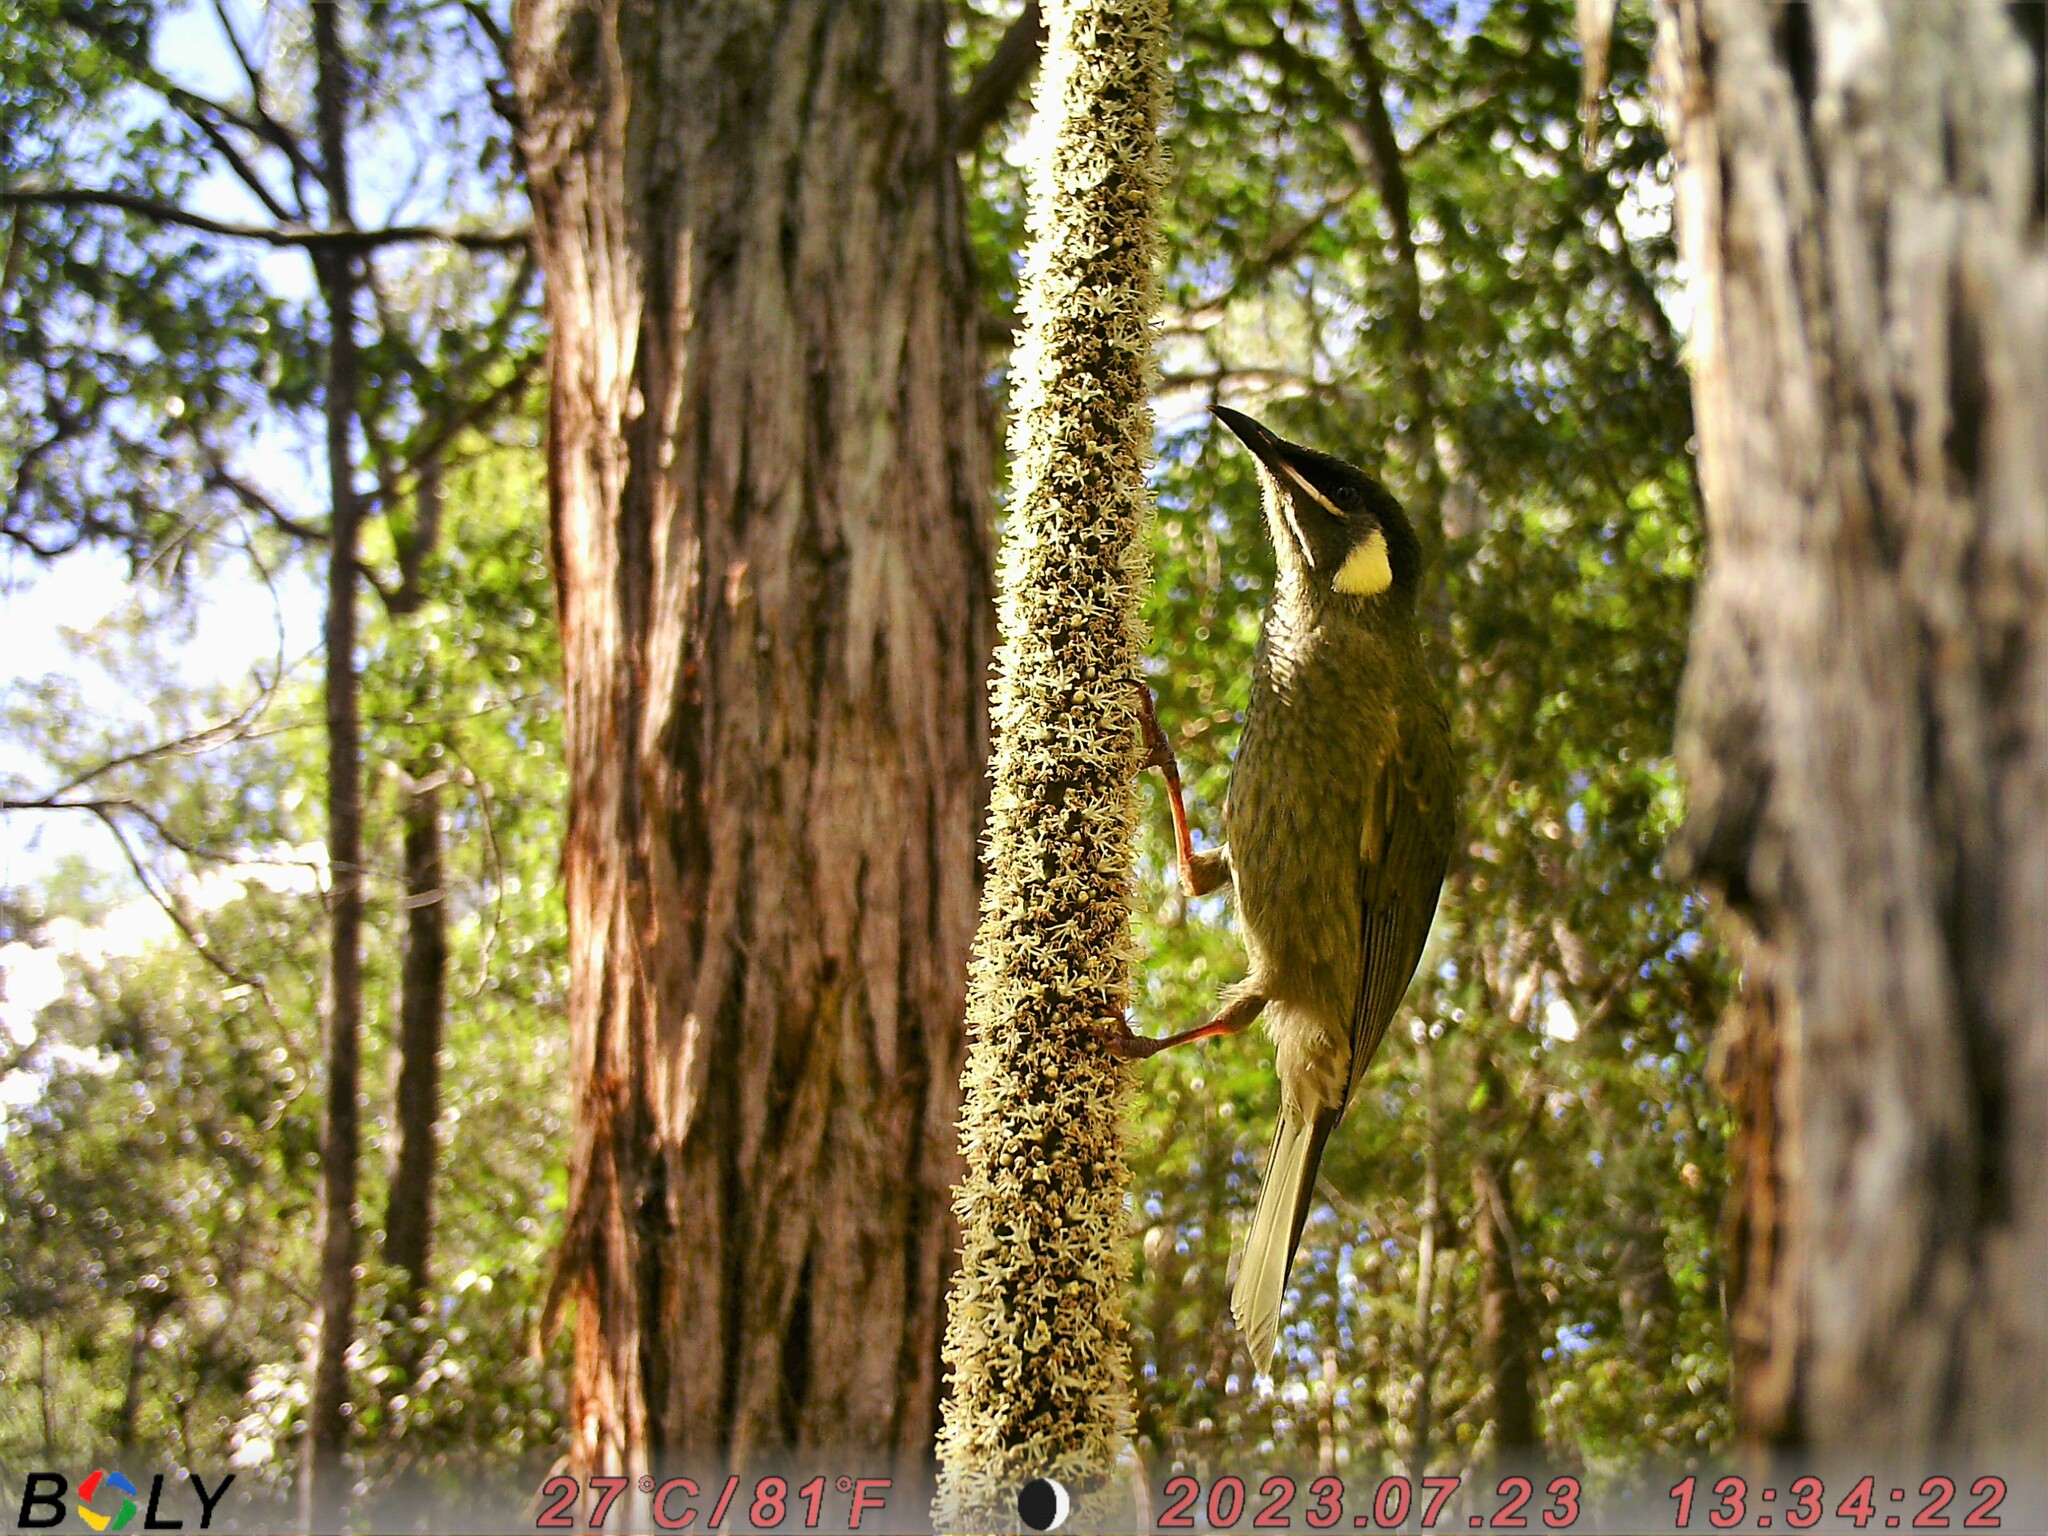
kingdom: Animalia
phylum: Chordata
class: Aves
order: Passeriformes
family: Meliphagidae
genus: Meliphaga
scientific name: Meliphaga lewinii
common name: Lewin's honeyeater
